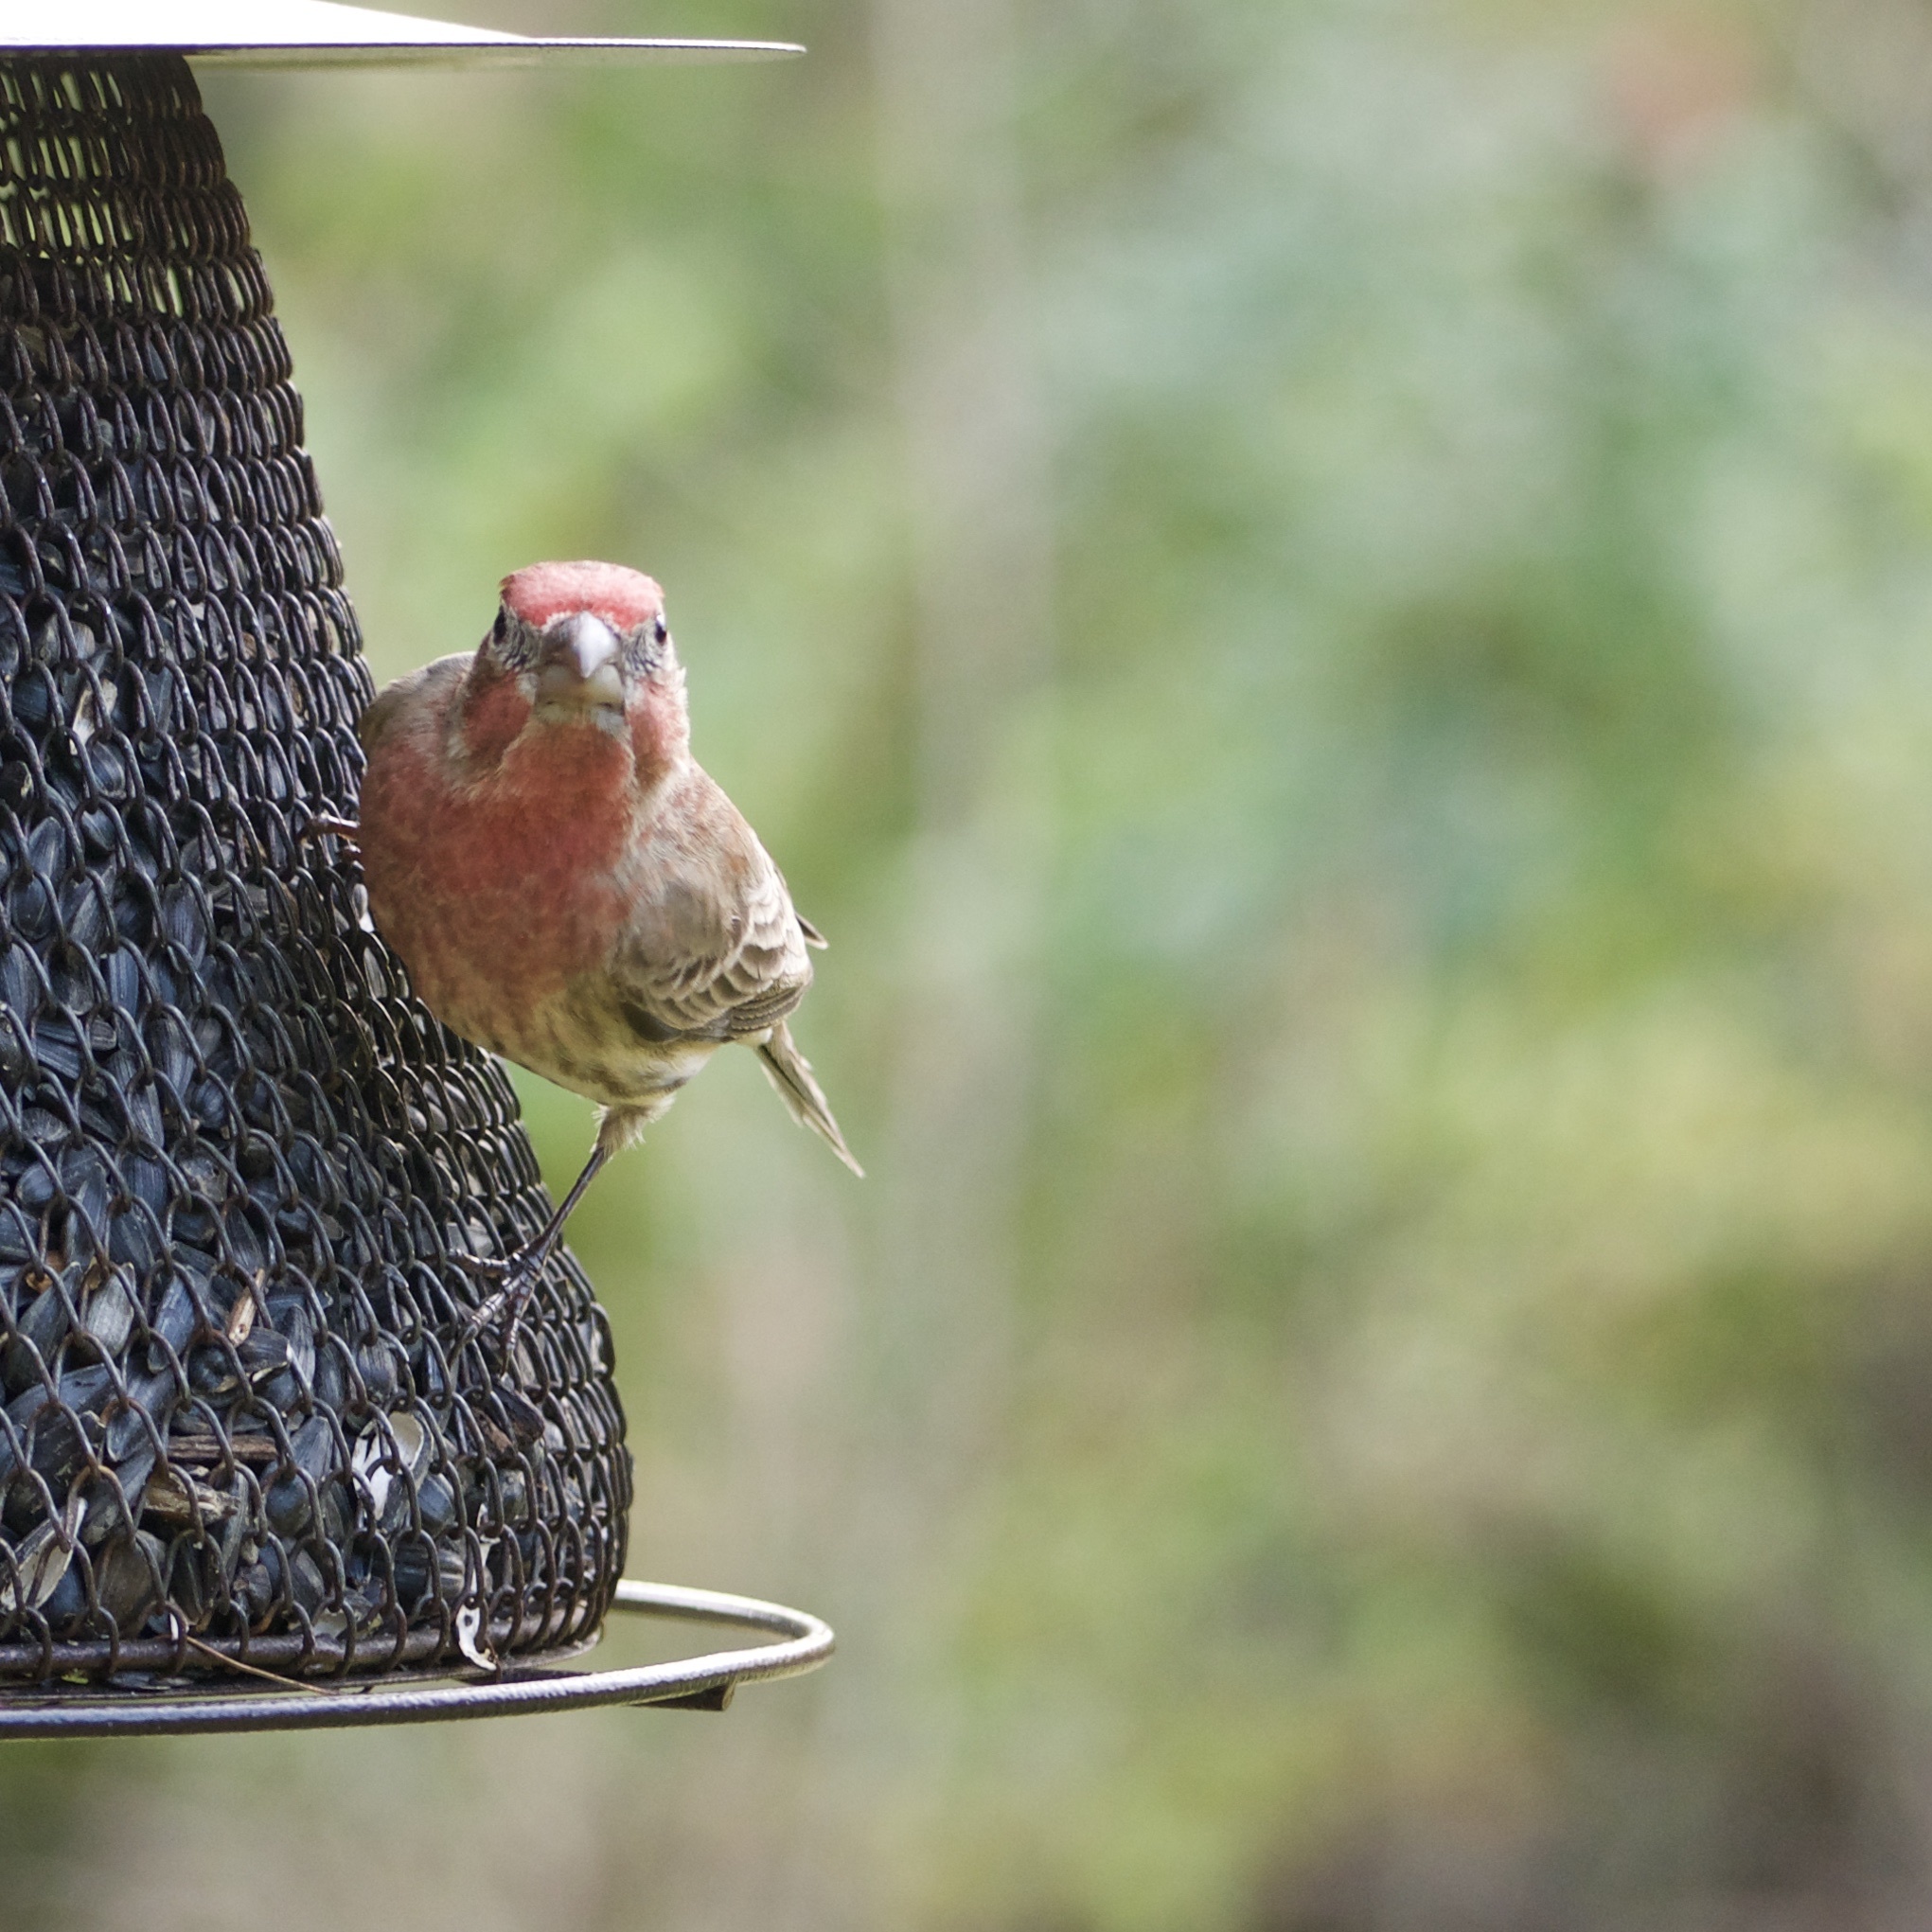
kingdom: Animalia
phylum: Chordata
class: Aves
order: Passeriformes
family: Fringillidae
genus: Haemorhous
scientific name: Haemorhous mexicanus
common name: House finch
